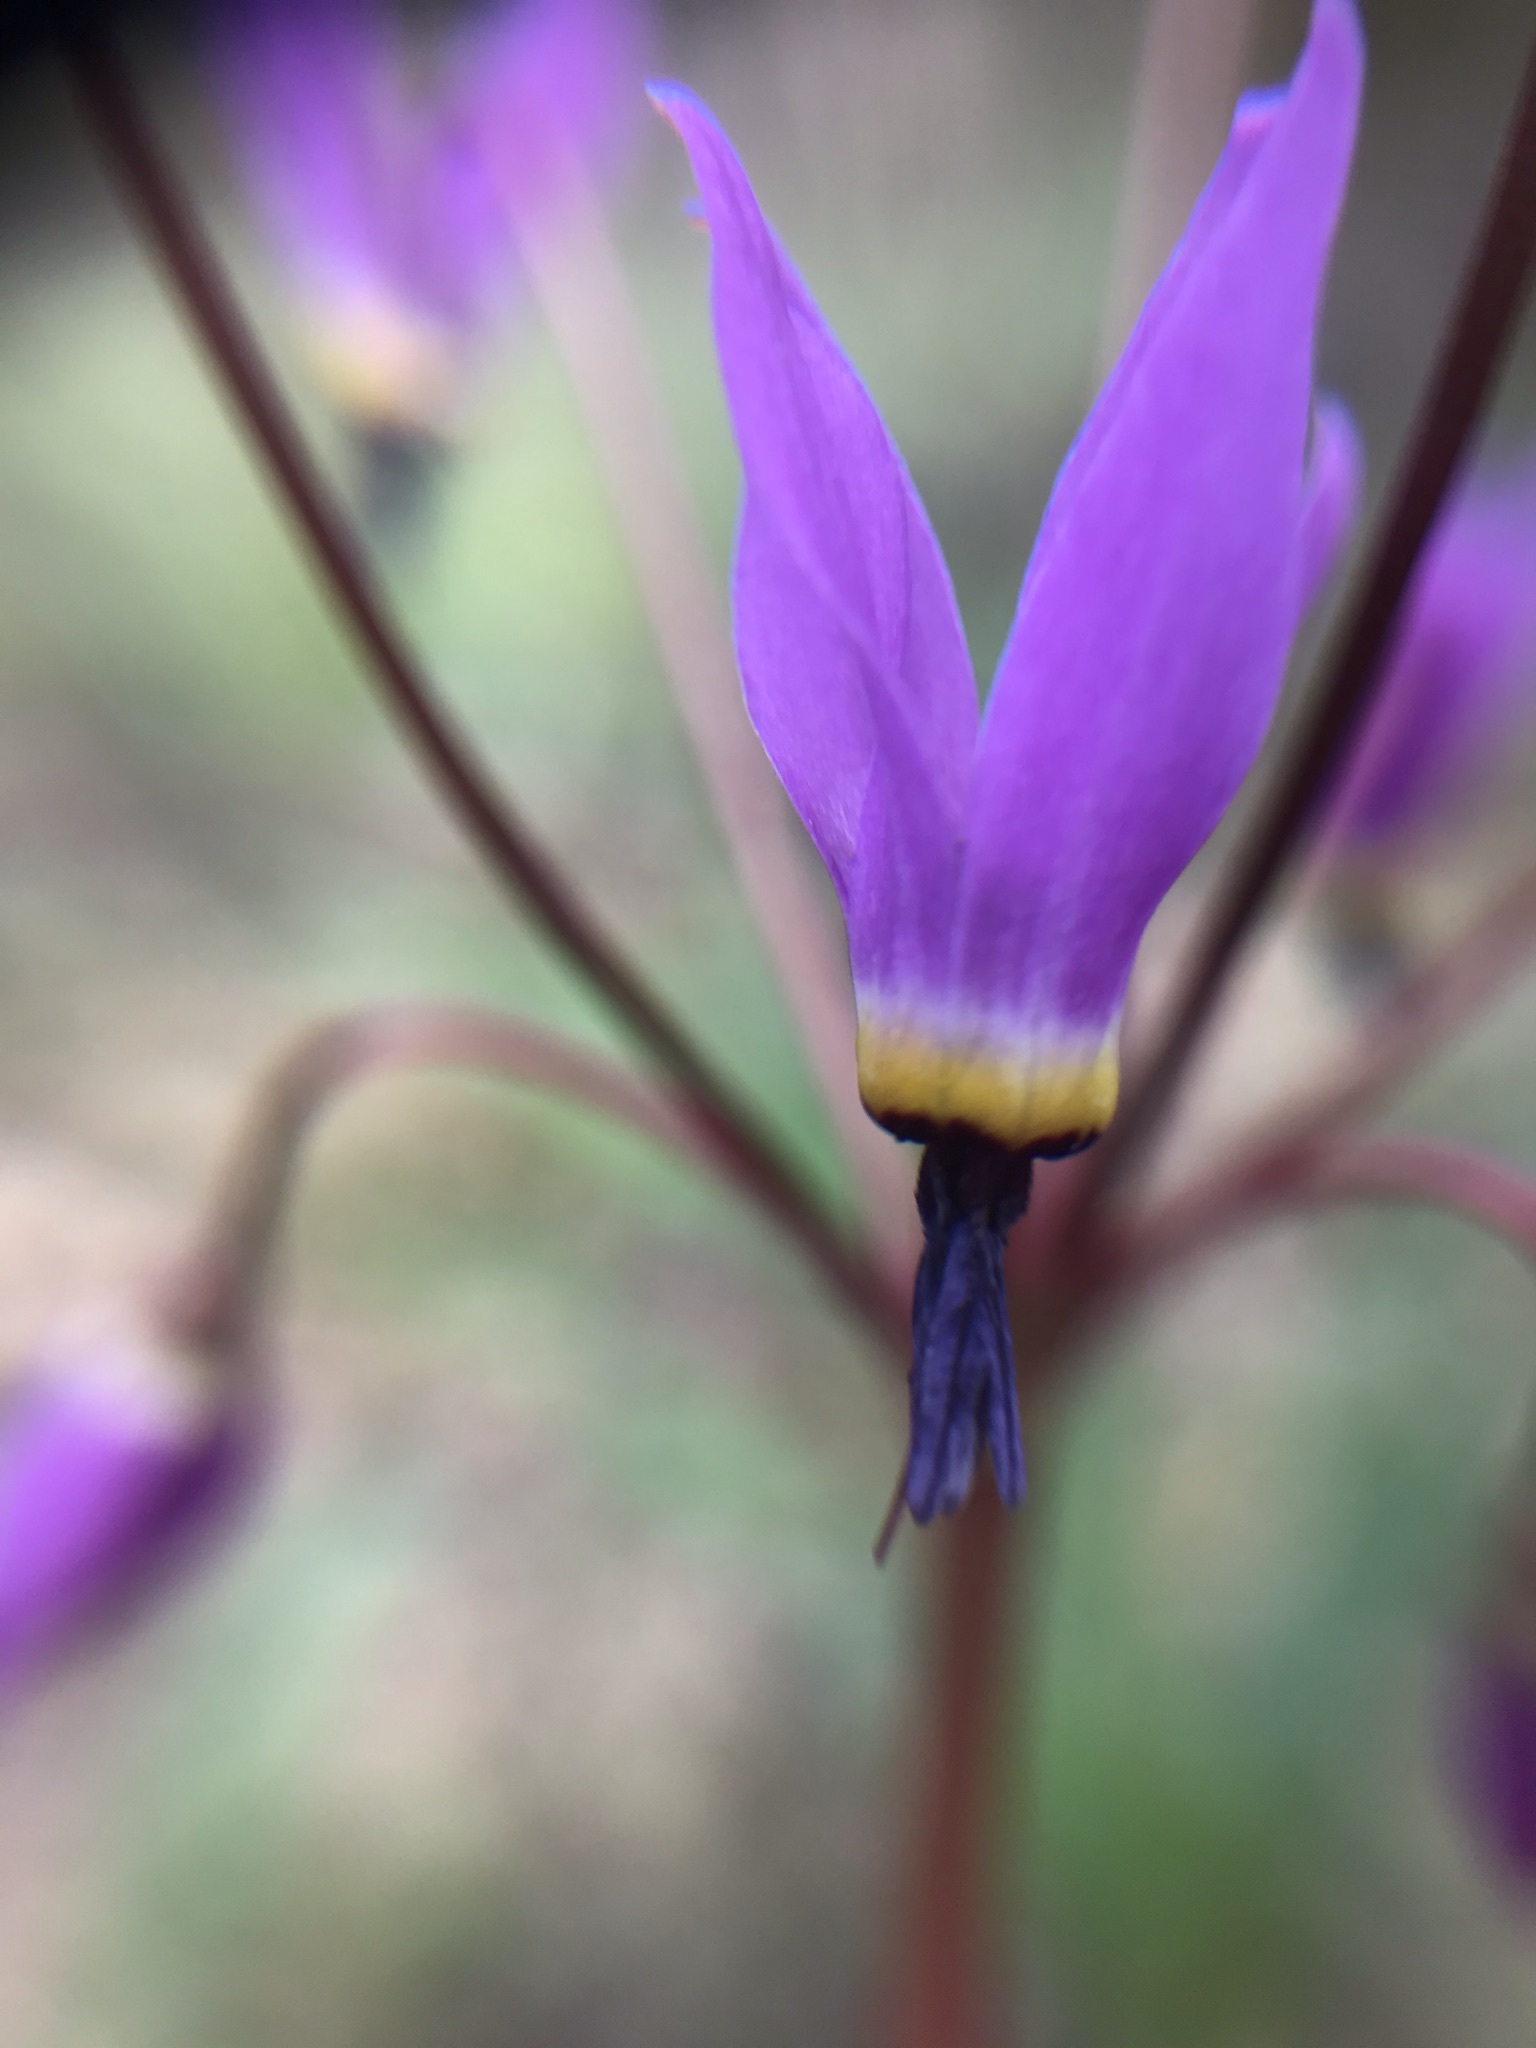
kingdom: Plantae
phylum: Tracheophyta
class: Magnoliopsida
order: Ericales
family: Primulaceae
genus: Dodecatheon
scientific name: Dodecatheon hendersonii
